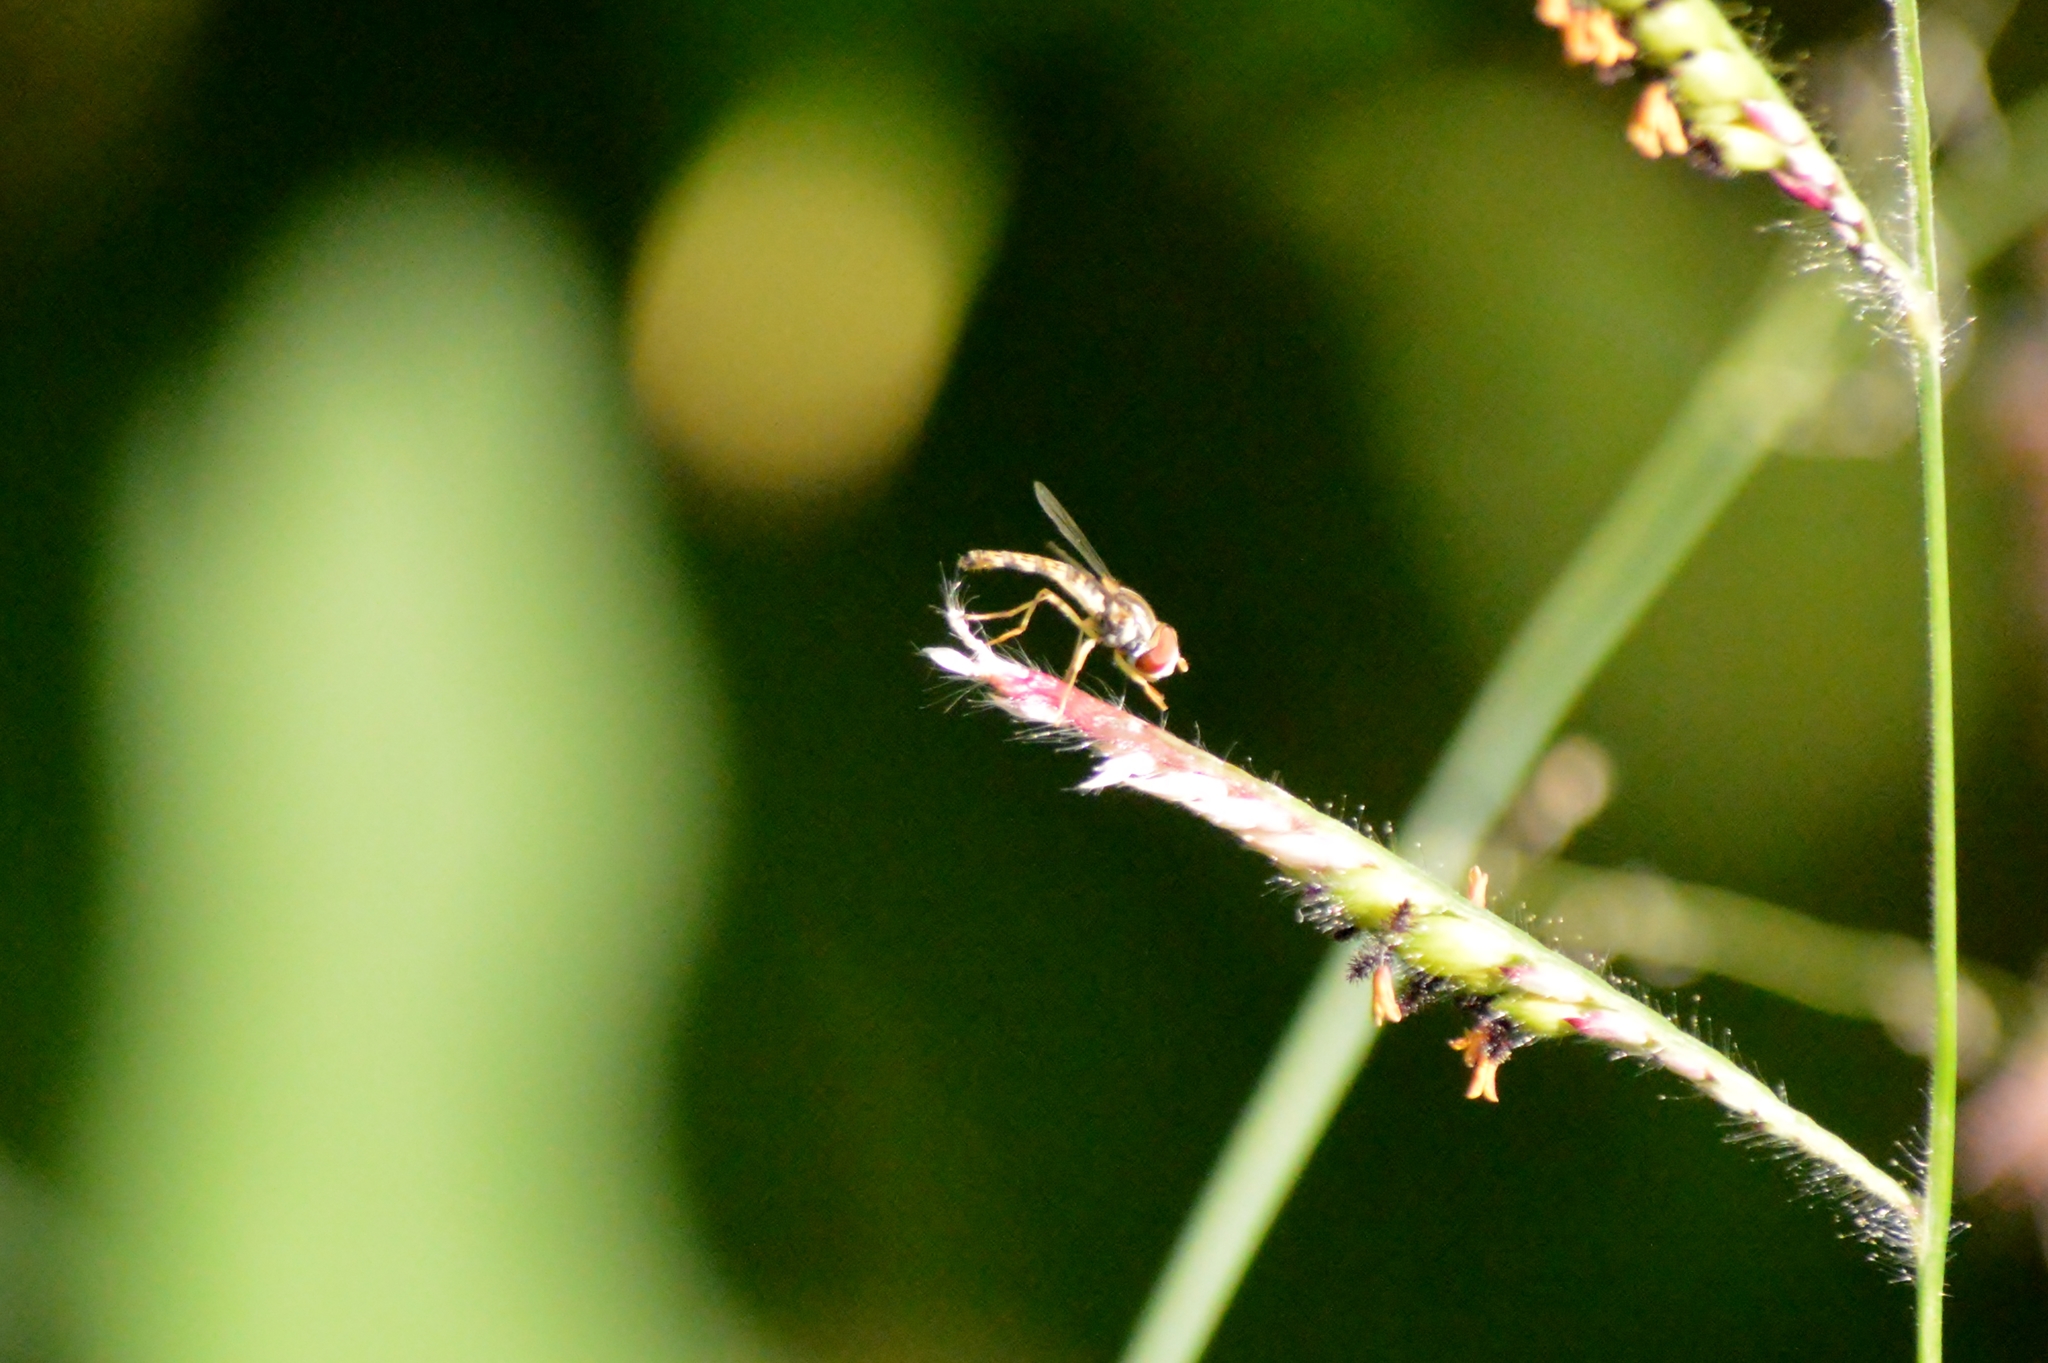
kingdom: Animalia
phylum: Arthropoda
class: Insecta
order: Diptera
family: Syrphidae
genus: Toxomerus
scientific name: Toxomerus
